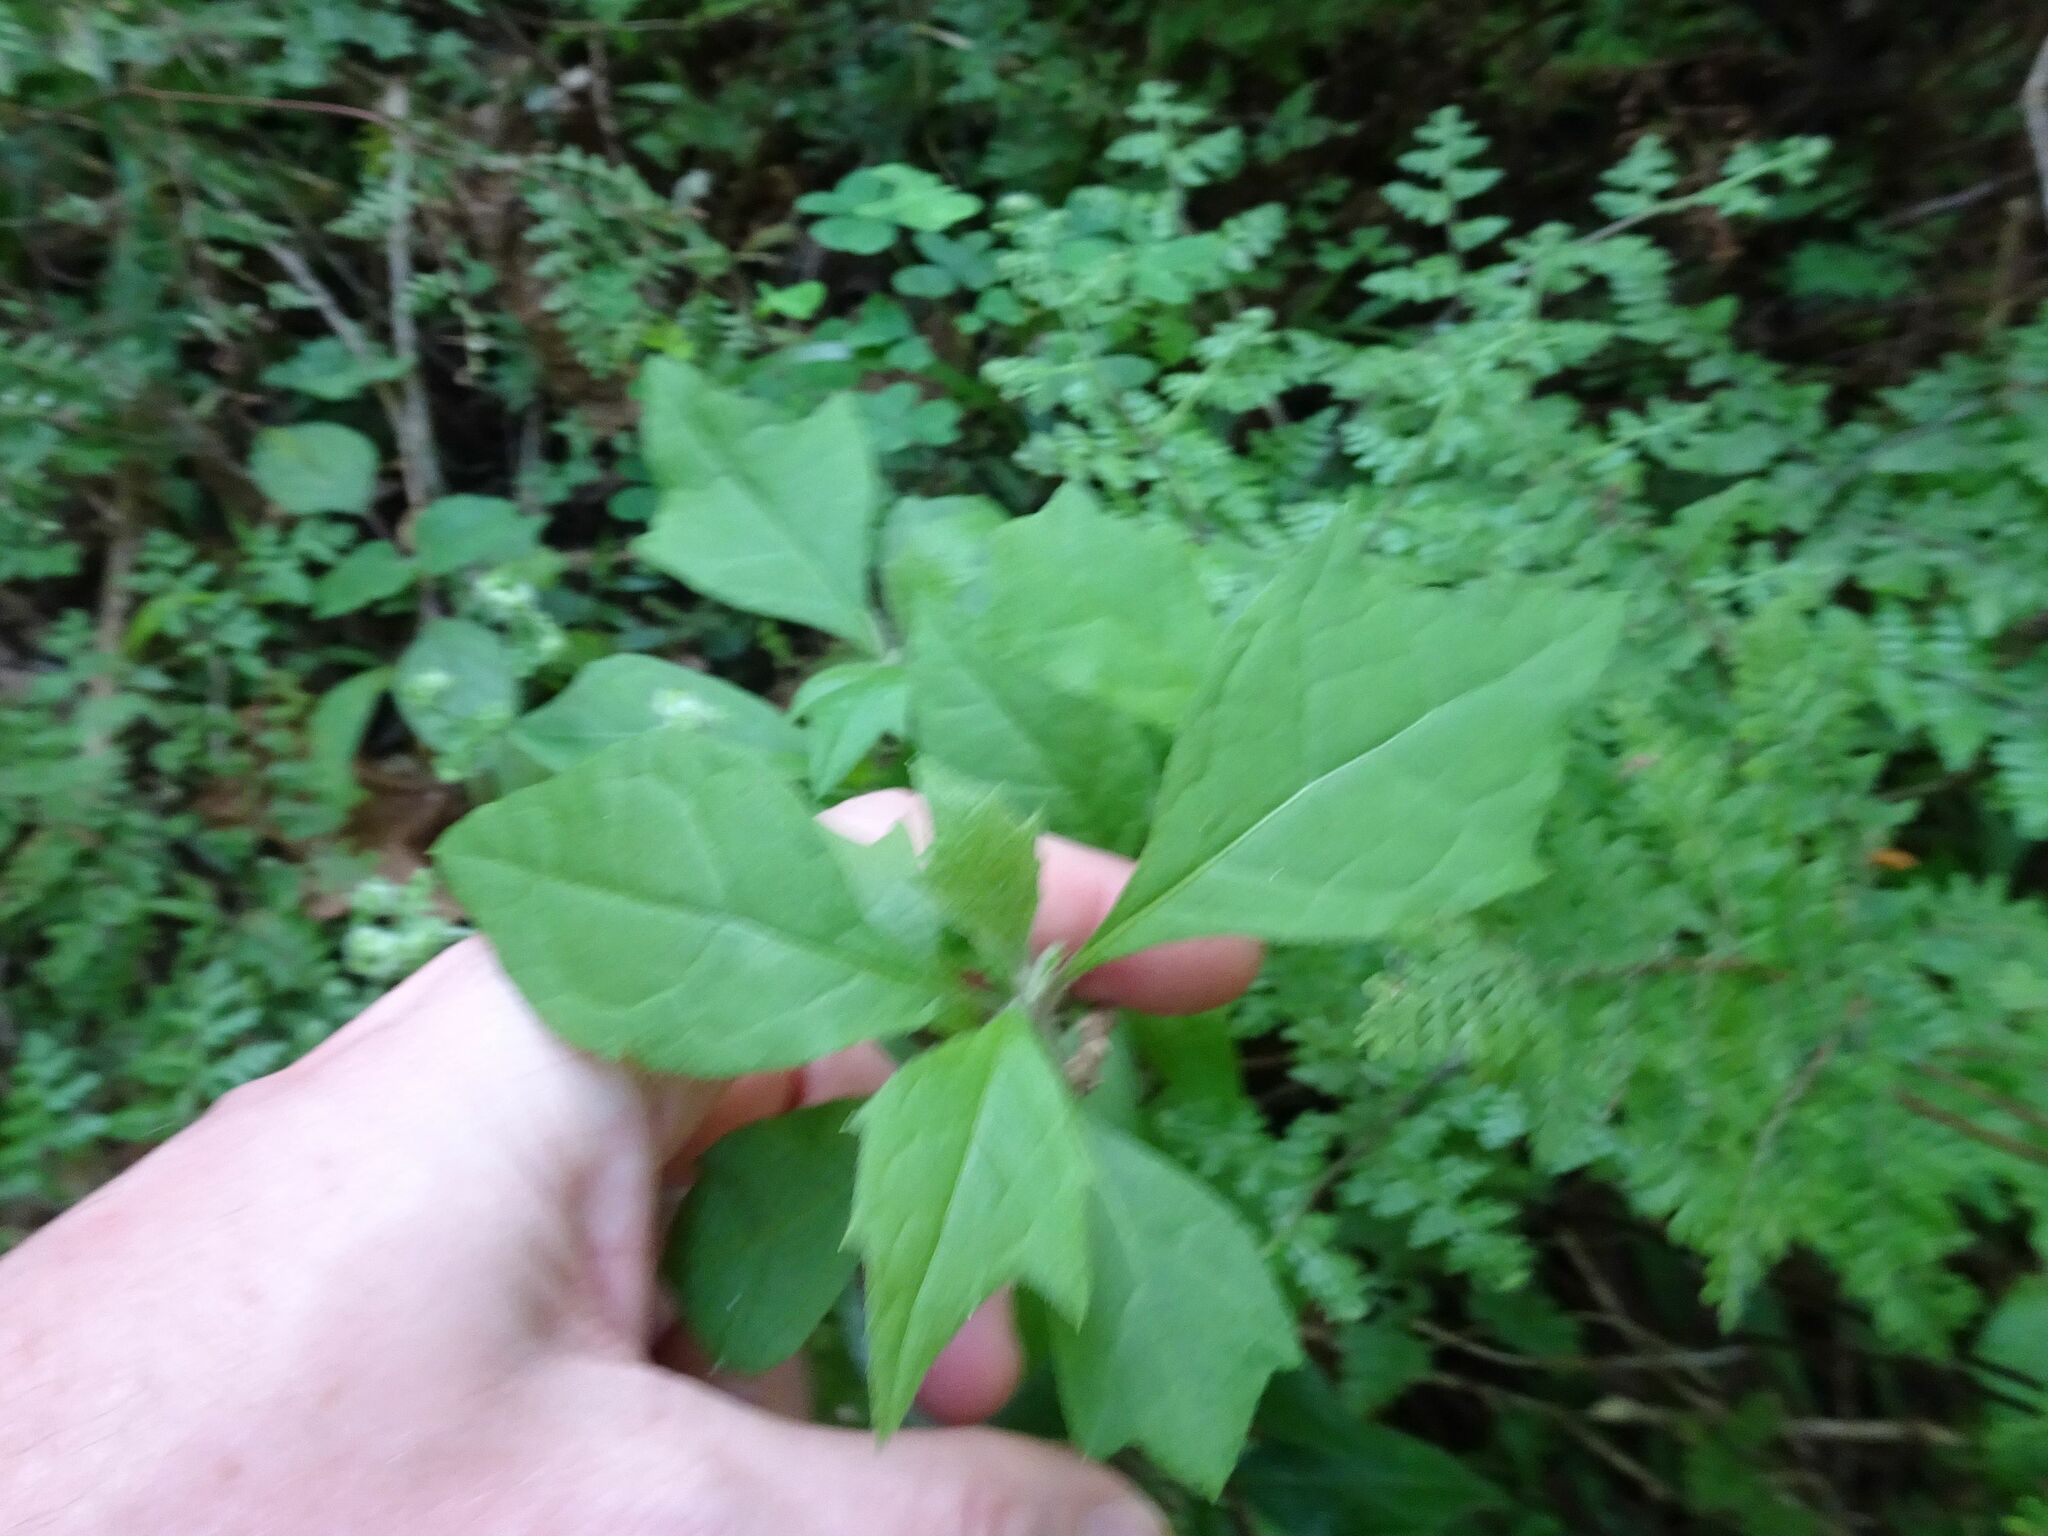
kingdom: Plantae
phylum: Tracheophyta
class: Magnoliopsida
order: Asterales
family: Asteraceae
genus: Gymnanthemum
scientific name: Gymnanthemum capense
